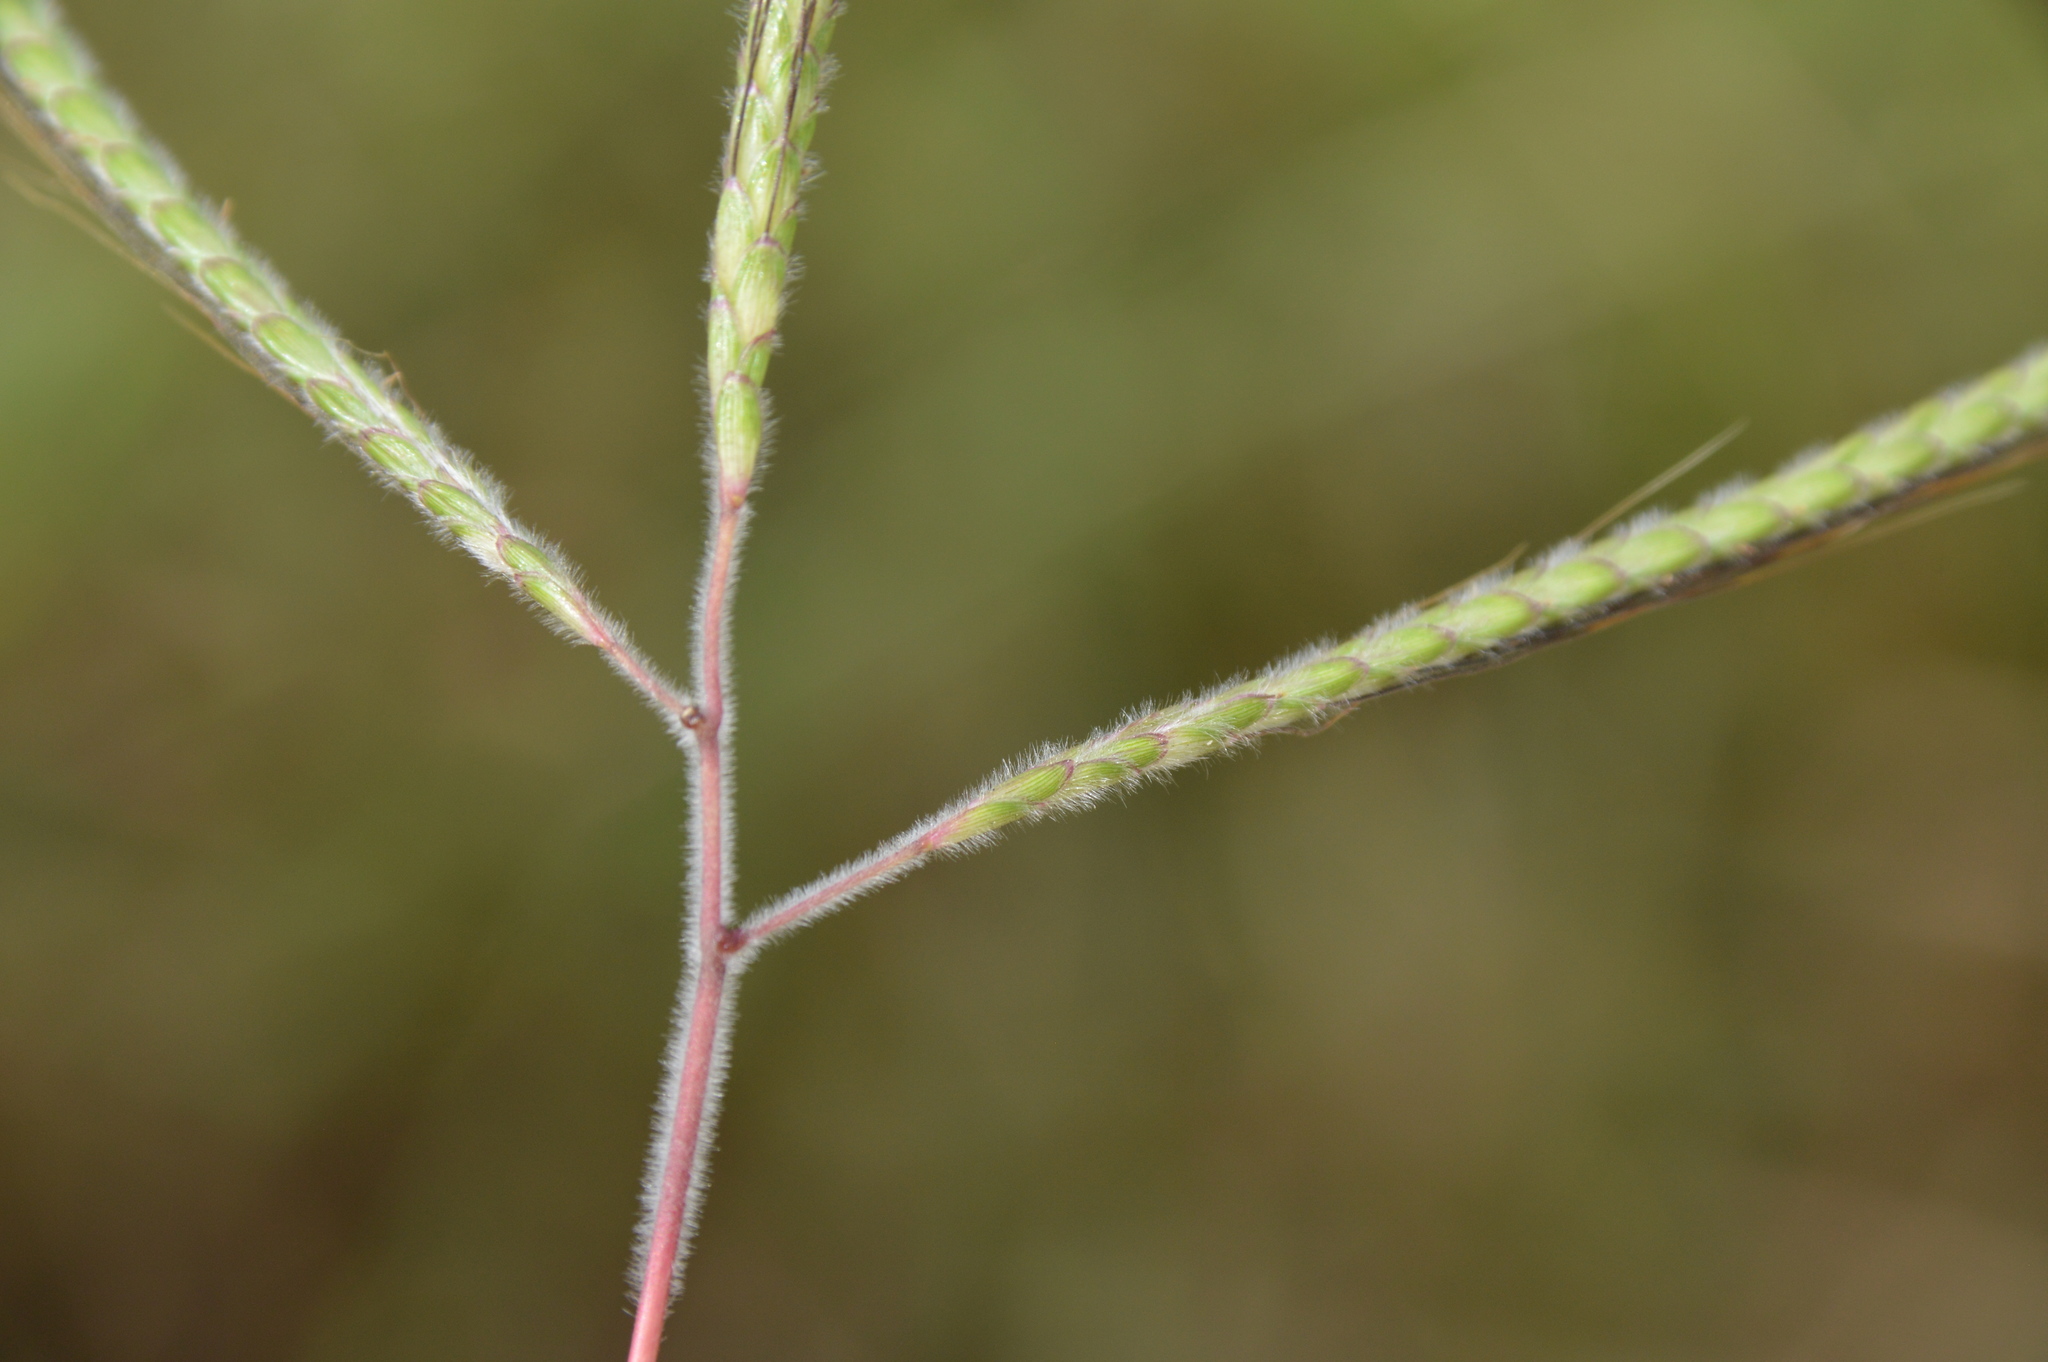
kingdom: Plantae
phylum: Tracheophyta
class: Liliopsida
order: Poales
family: Poaceae
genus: Dichanthium
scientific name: Dichanthium aristatum
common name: Angleton bluestem
